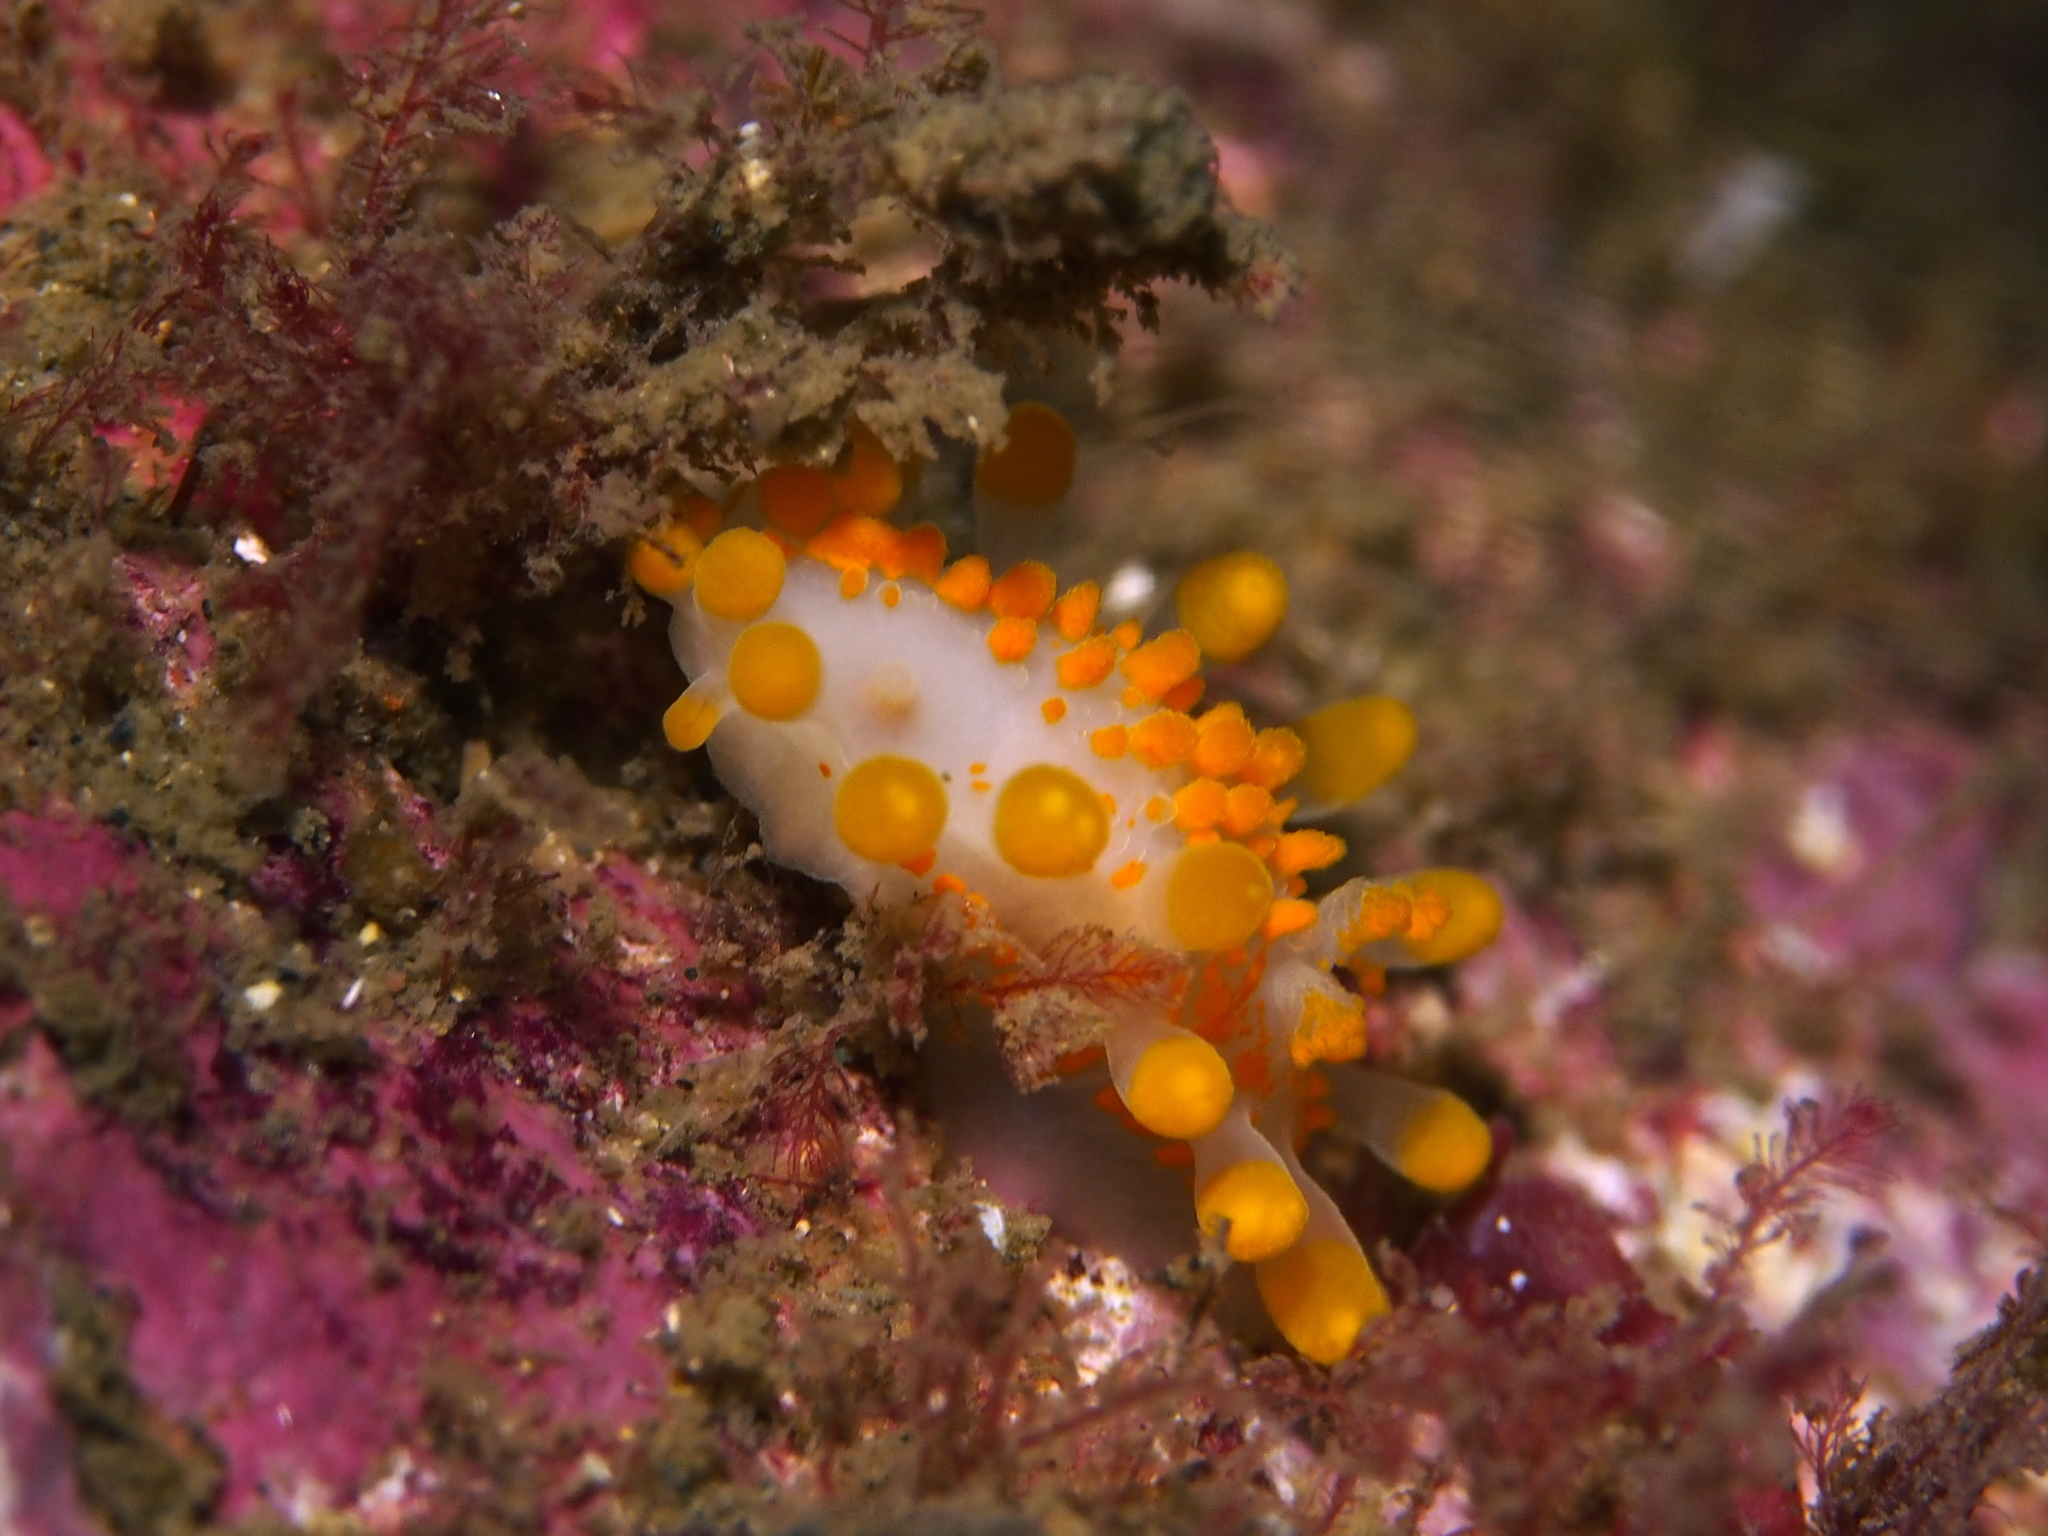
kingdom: Animalia
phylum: Mollusca
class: Gastropoda
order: Nudibranchia
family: Polyceridae
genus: Limacia
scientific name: Limacia clavigera
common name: Orange-clubbed sea slug
